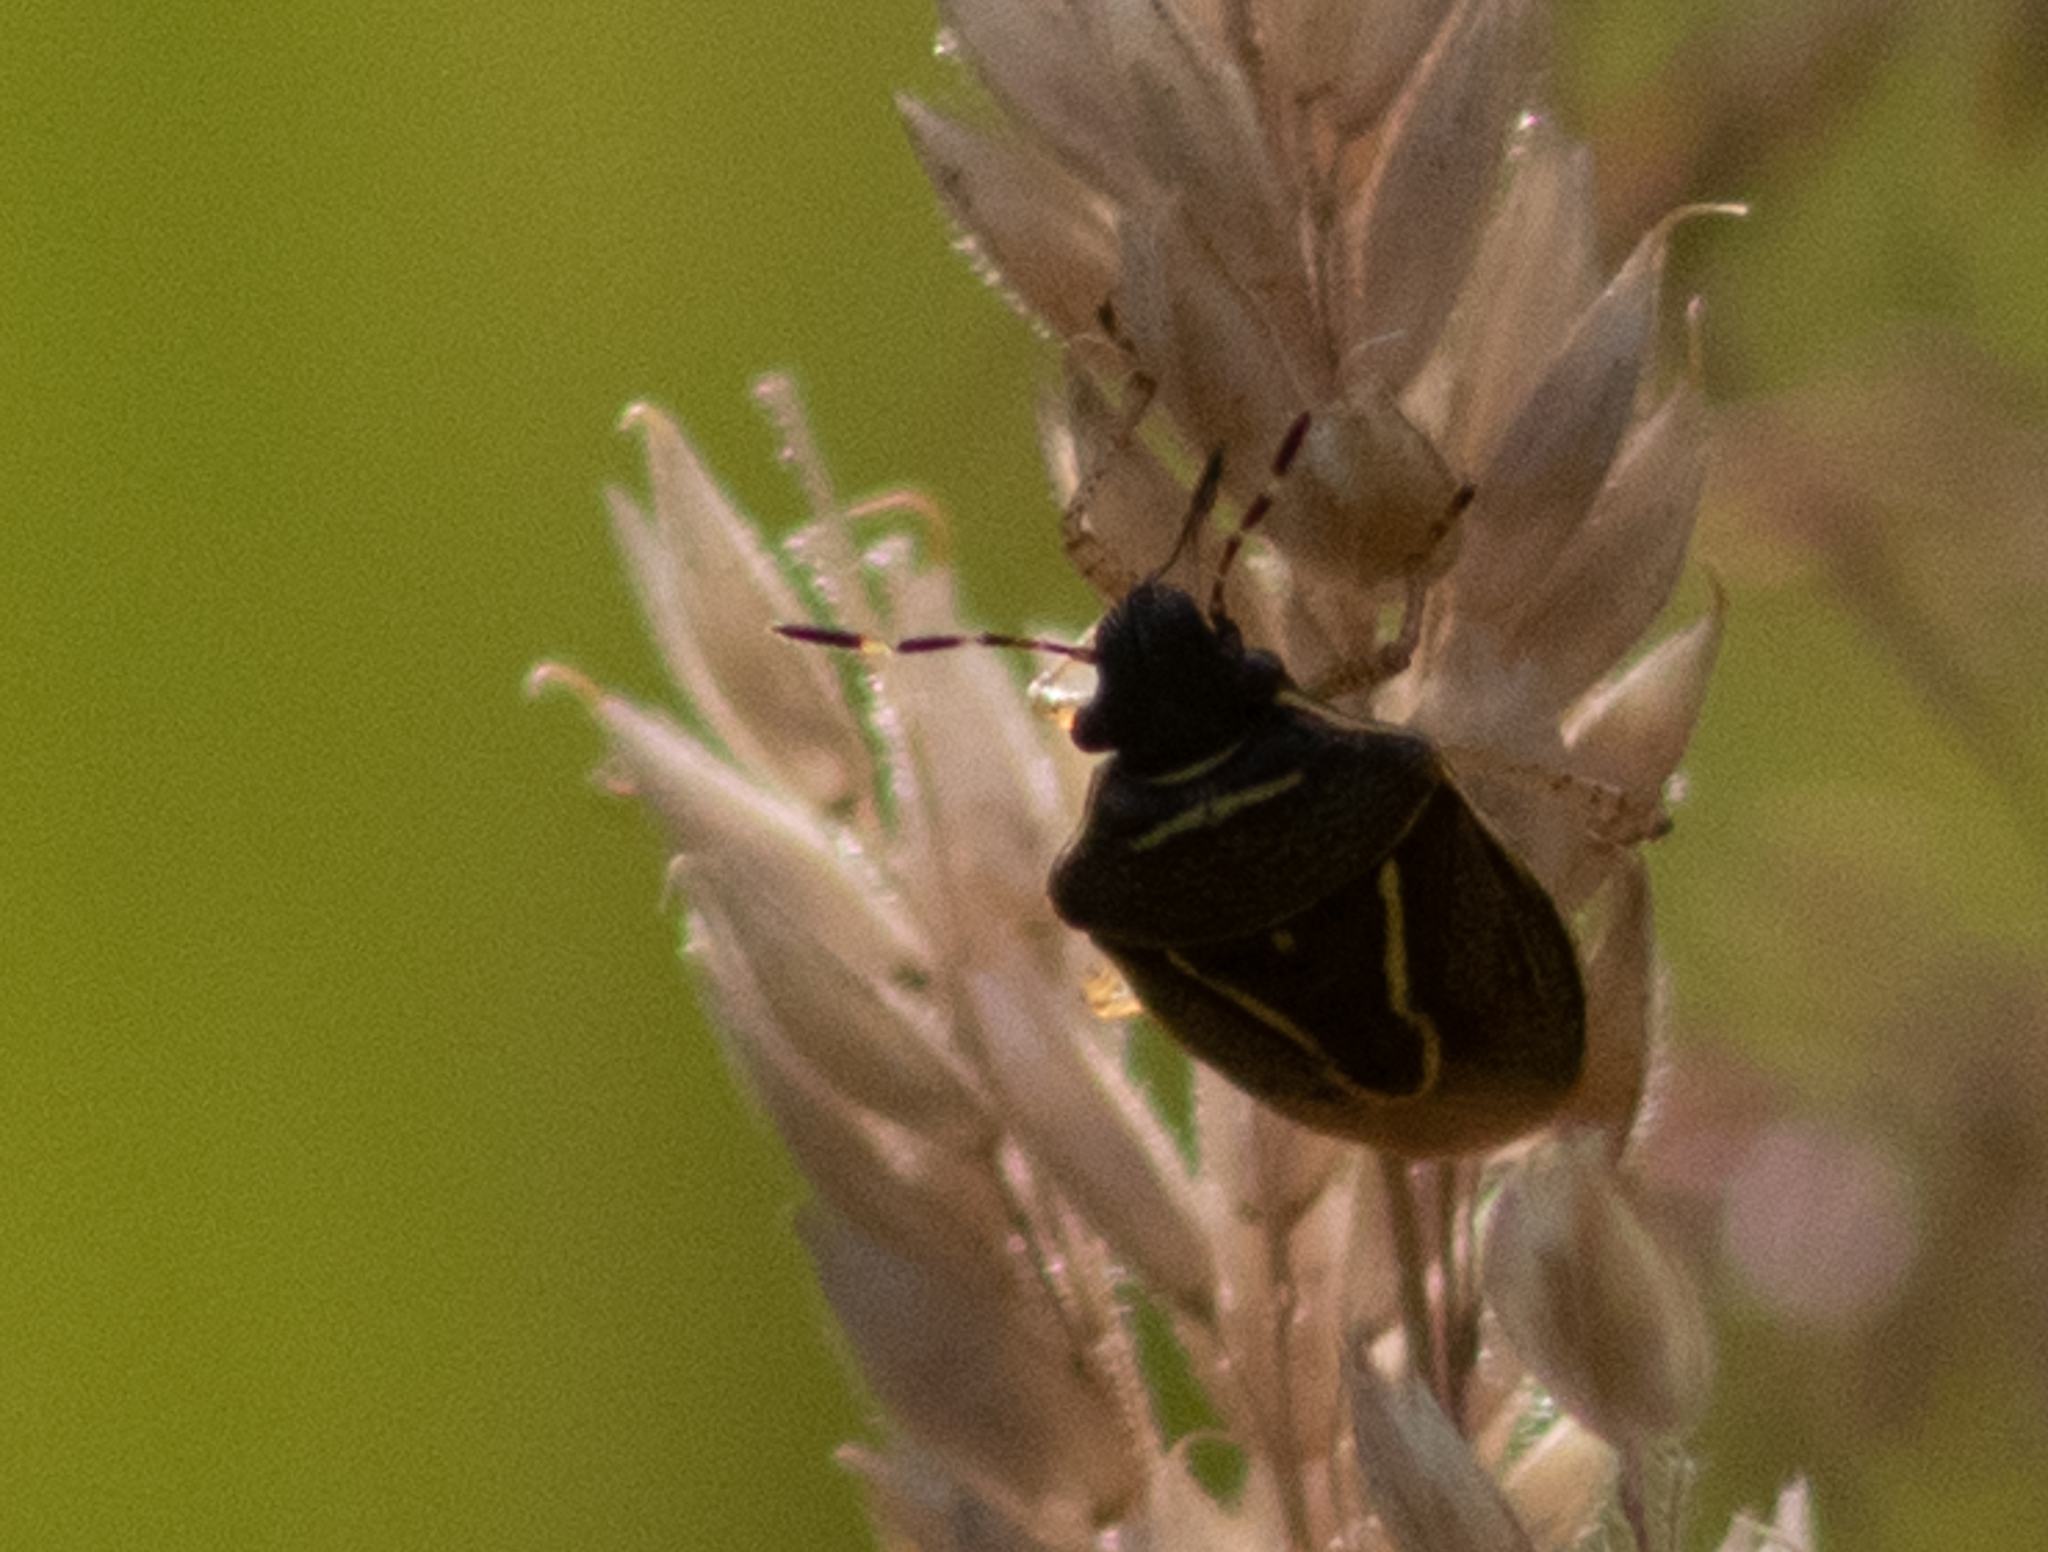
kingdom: Animalia
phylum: Arthropoda
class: Insecta
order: Hemiptera
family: Pentatomidae
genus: Mormidea
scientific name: Mormidea lugens
